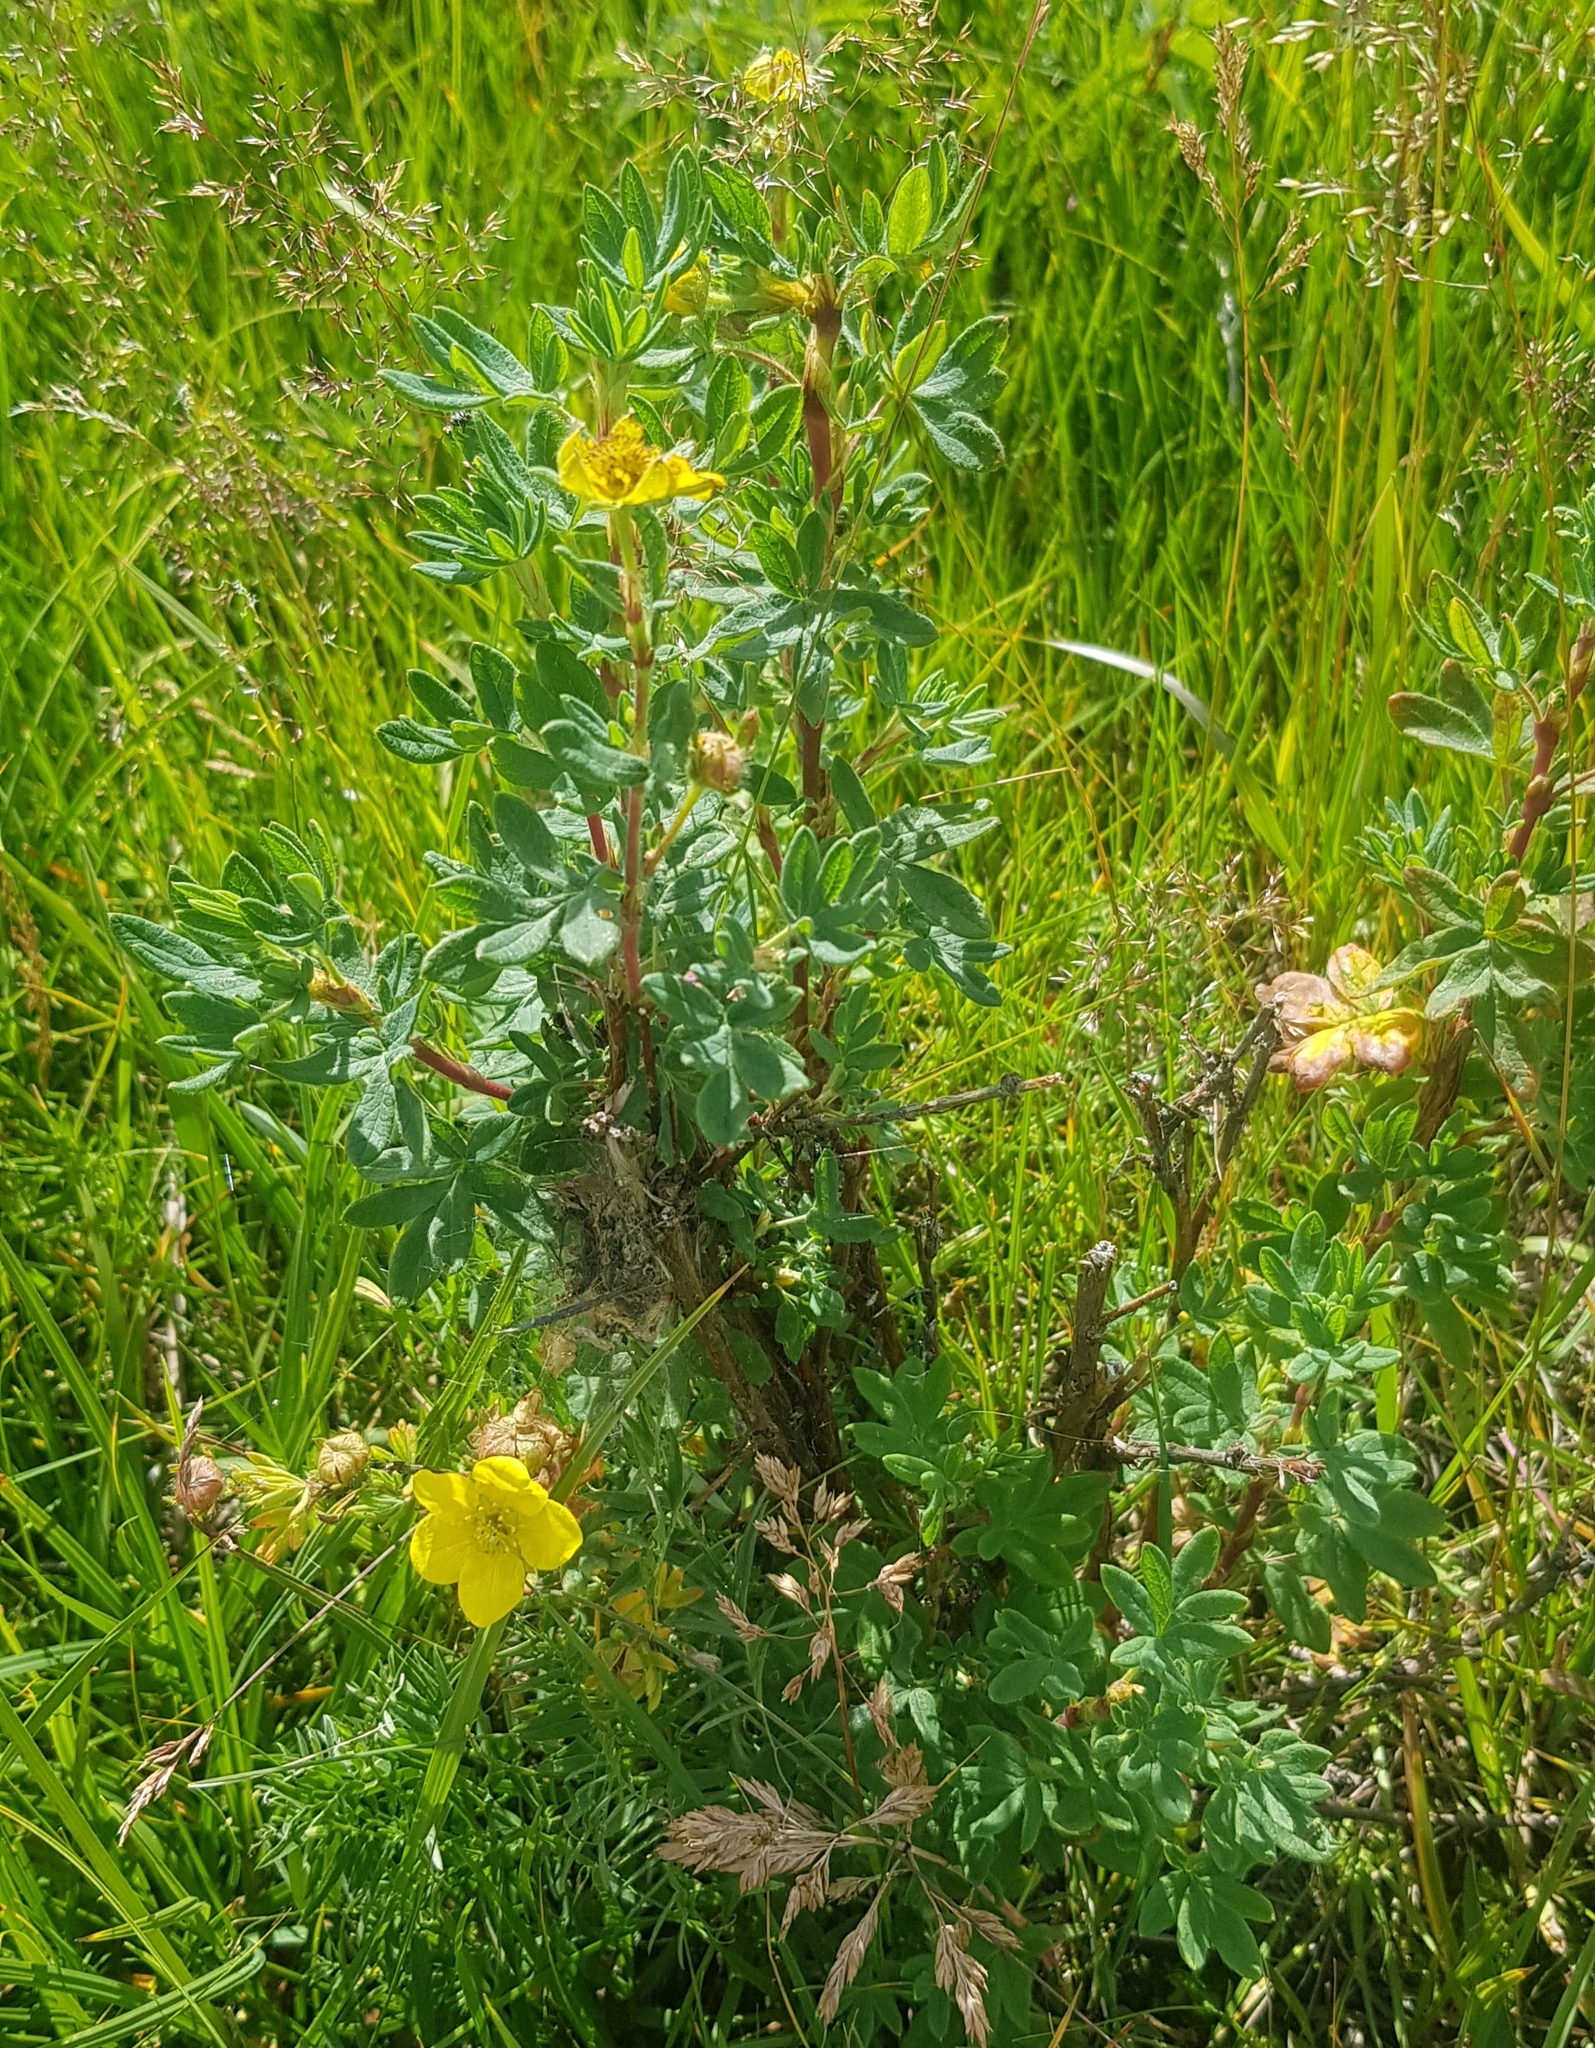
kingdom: Plantae
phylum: Tracheophyta
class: Magnoliopsida
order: Rosales
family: Rosaceae
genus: Dasiphora
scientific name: Dasiphora fruticosa
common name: Shrubby cinquefoil
